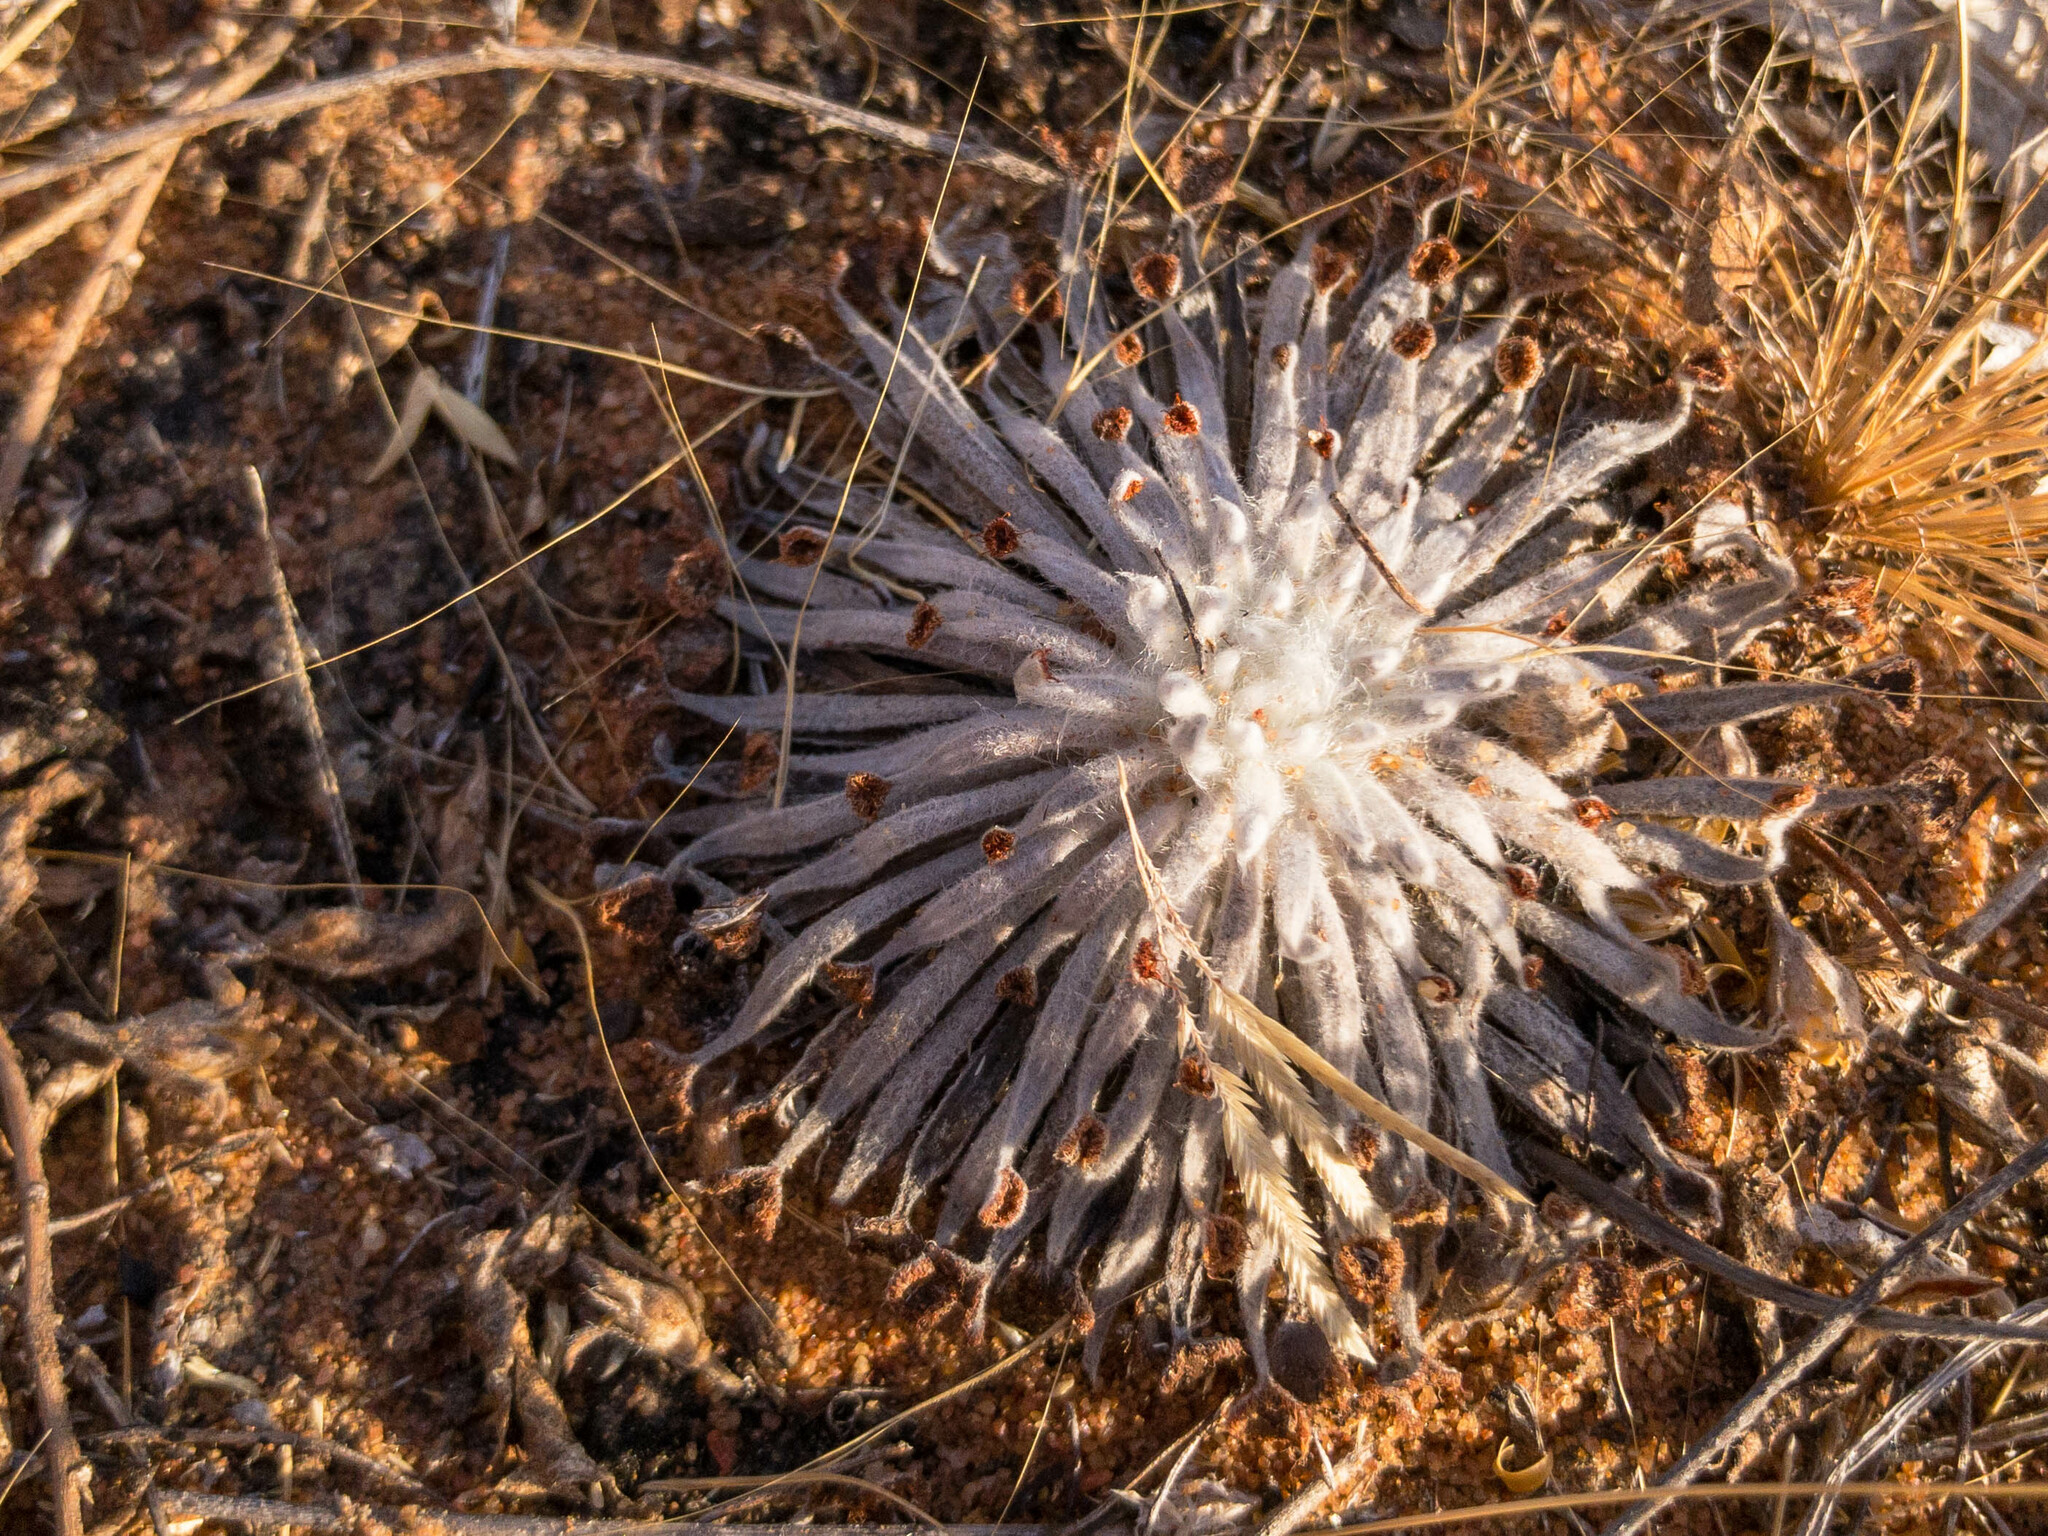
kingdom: Plantae
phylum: Tracheophyta
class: Magnoliopsida
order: Caryophyllales
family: Droseraceae
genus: Drosera
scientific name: Drosera derbyensis
